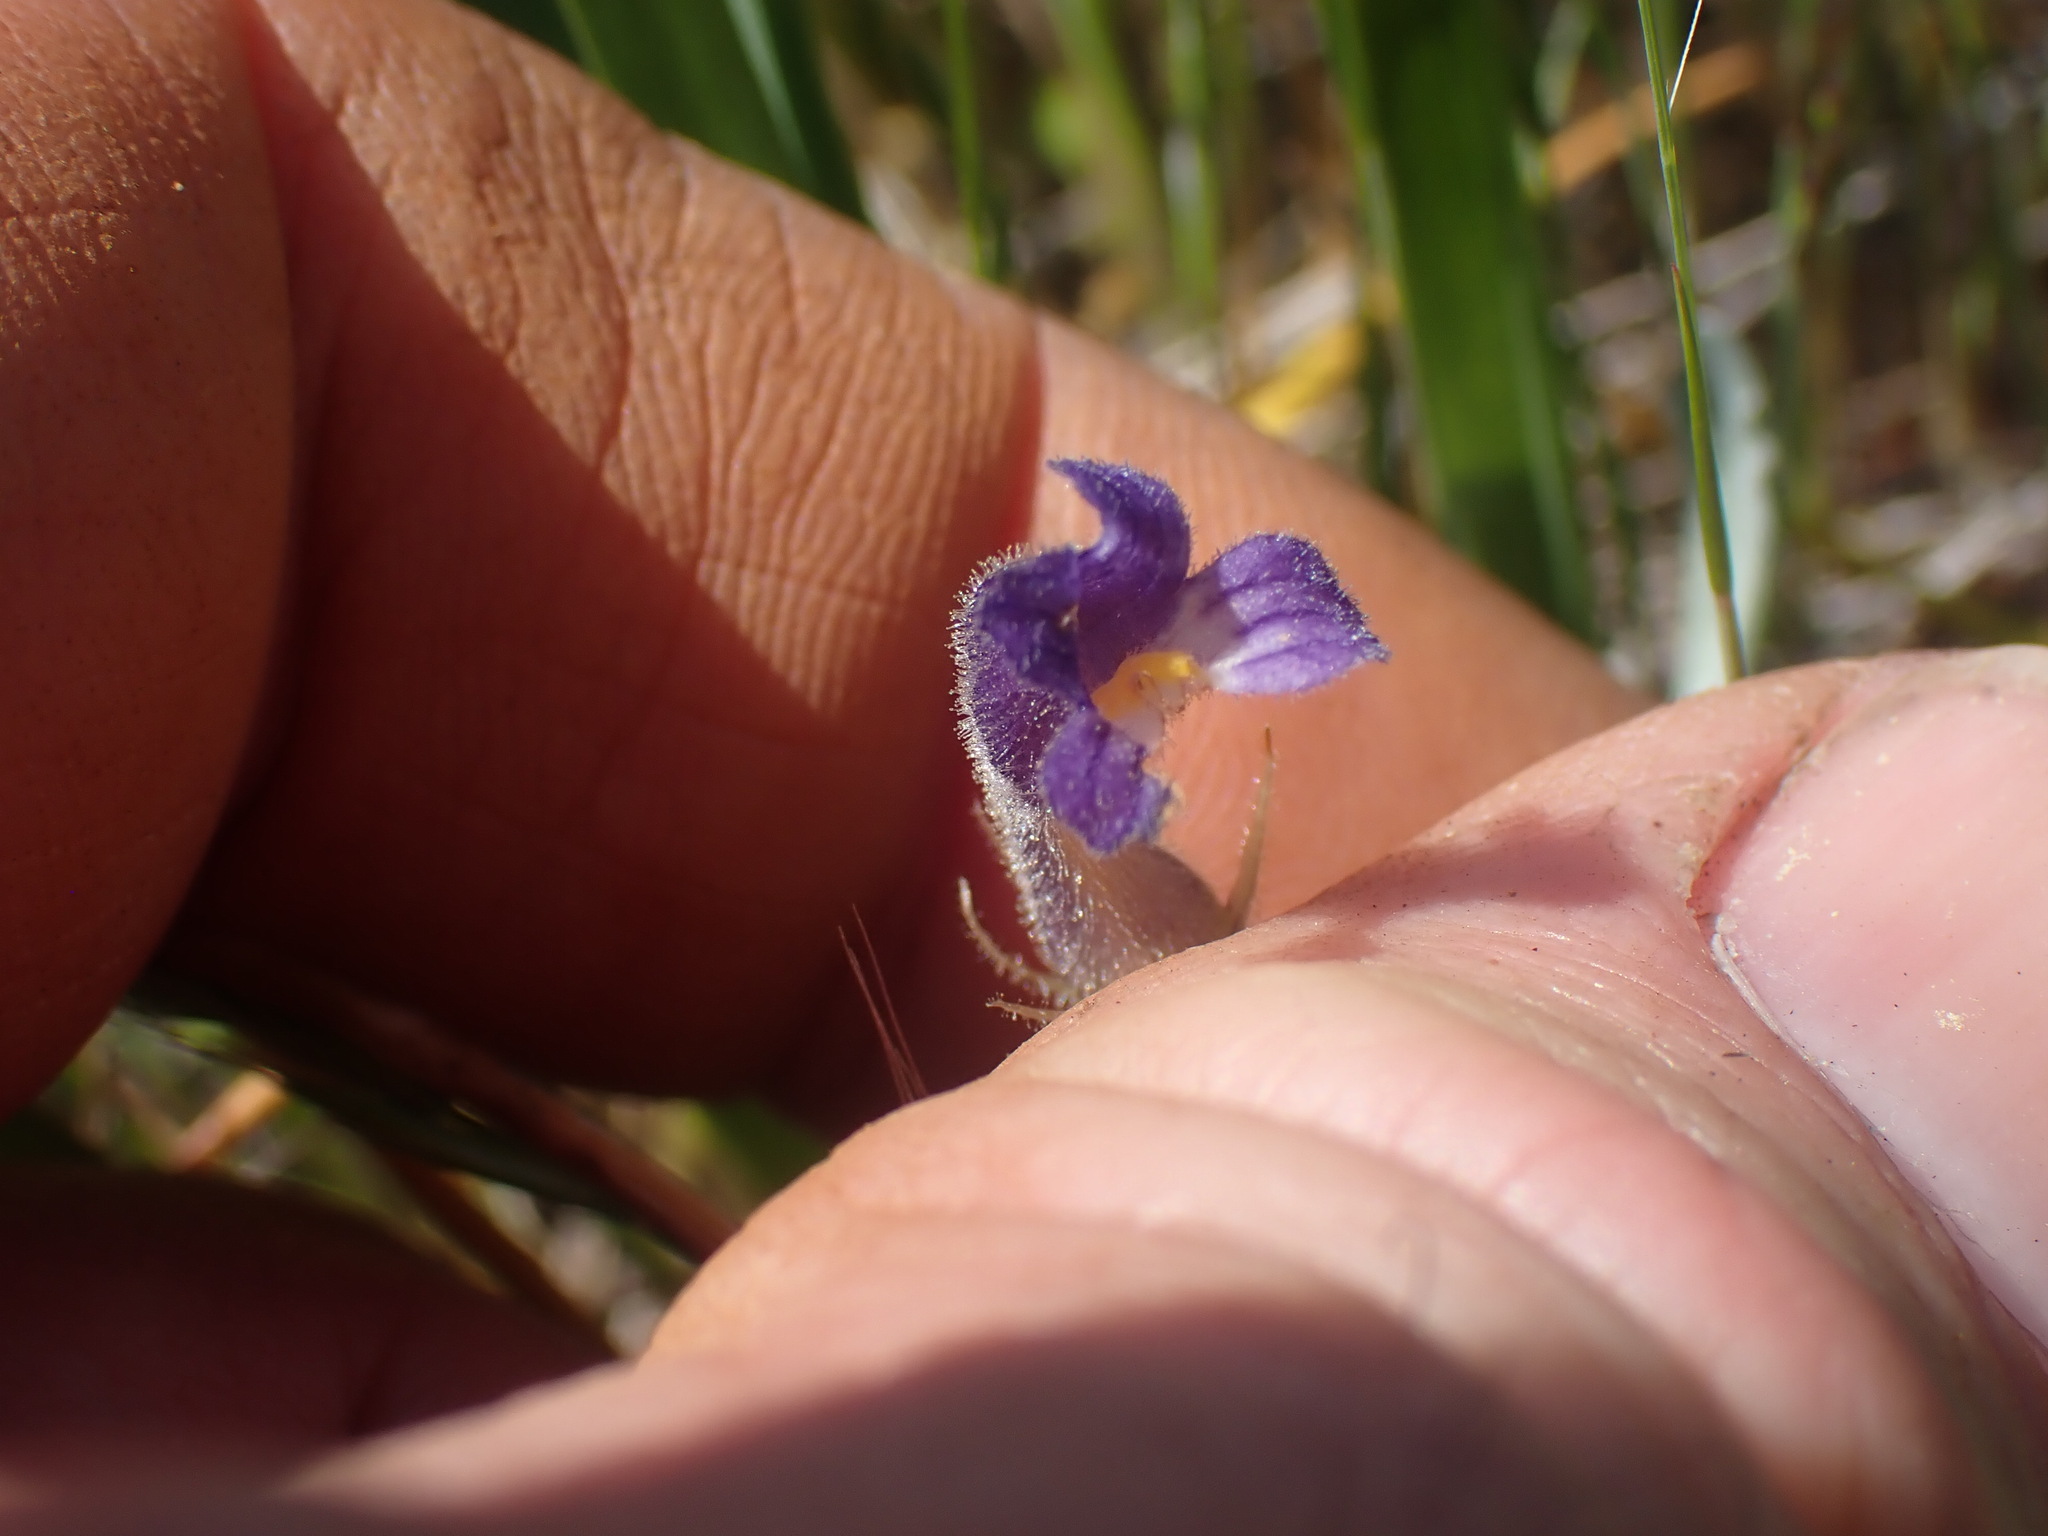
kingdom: Plantae
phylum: Tracheophyta
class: Magnoliopsida
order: Lamiales
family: Orobanchaceae
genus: Aphyllon
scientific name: Aphyllon uniflorum
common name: One-flowered broomrape
